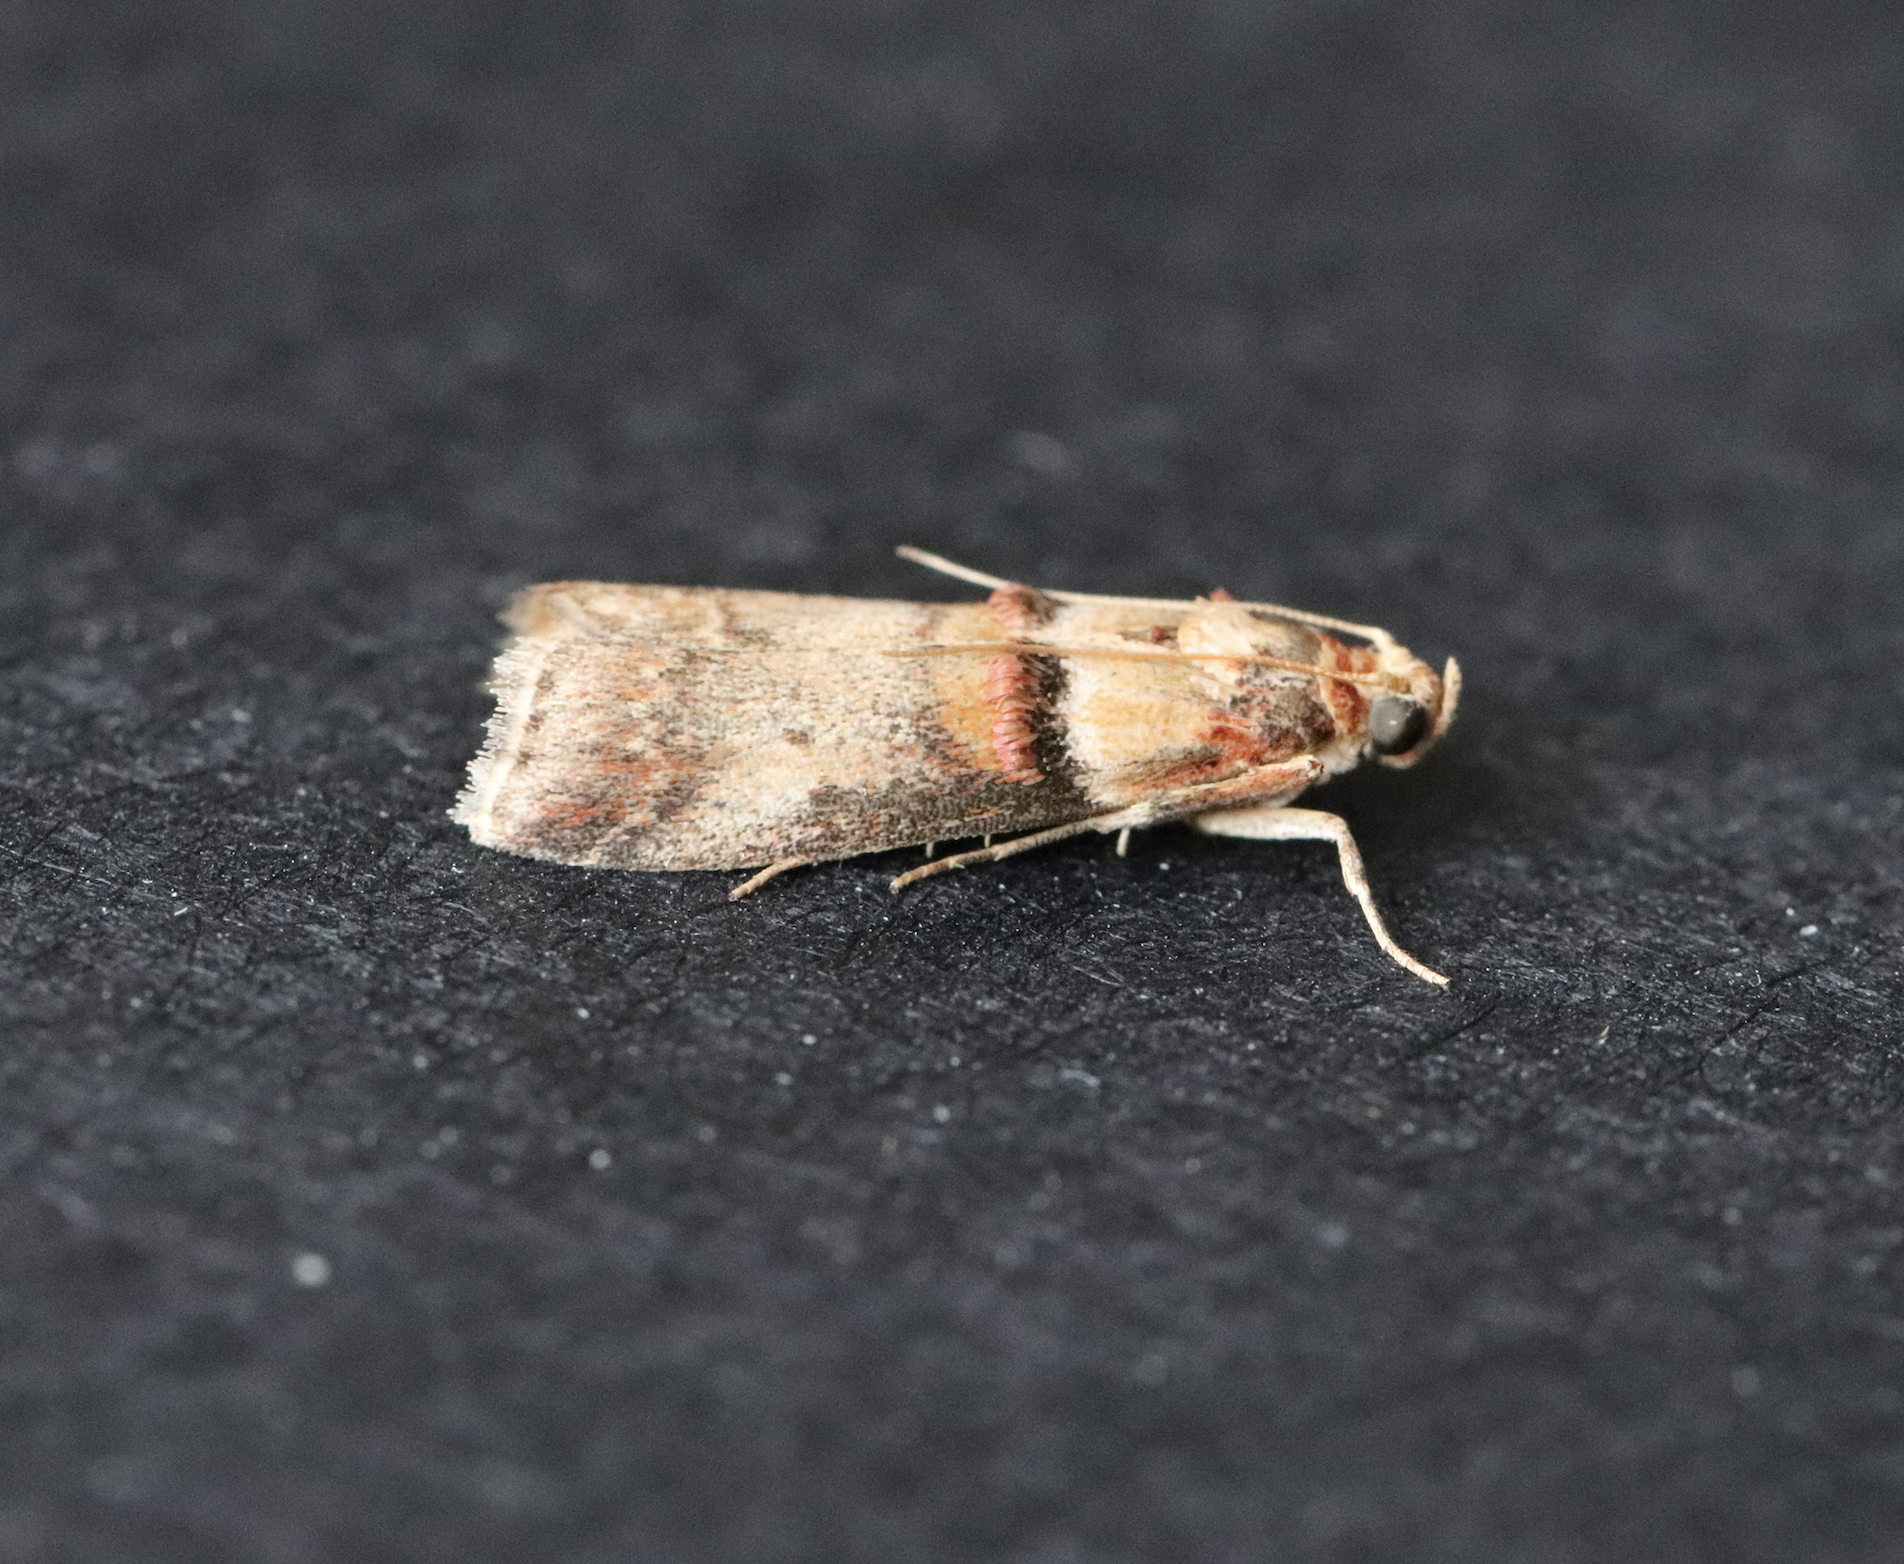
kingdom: Animalia
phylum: Arthropoda
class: Insecta
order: Lepidoptera
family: Pyralidae
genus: Acrobasis
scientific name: Acrobasis tumidana
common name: Scarce oak knot-horn
